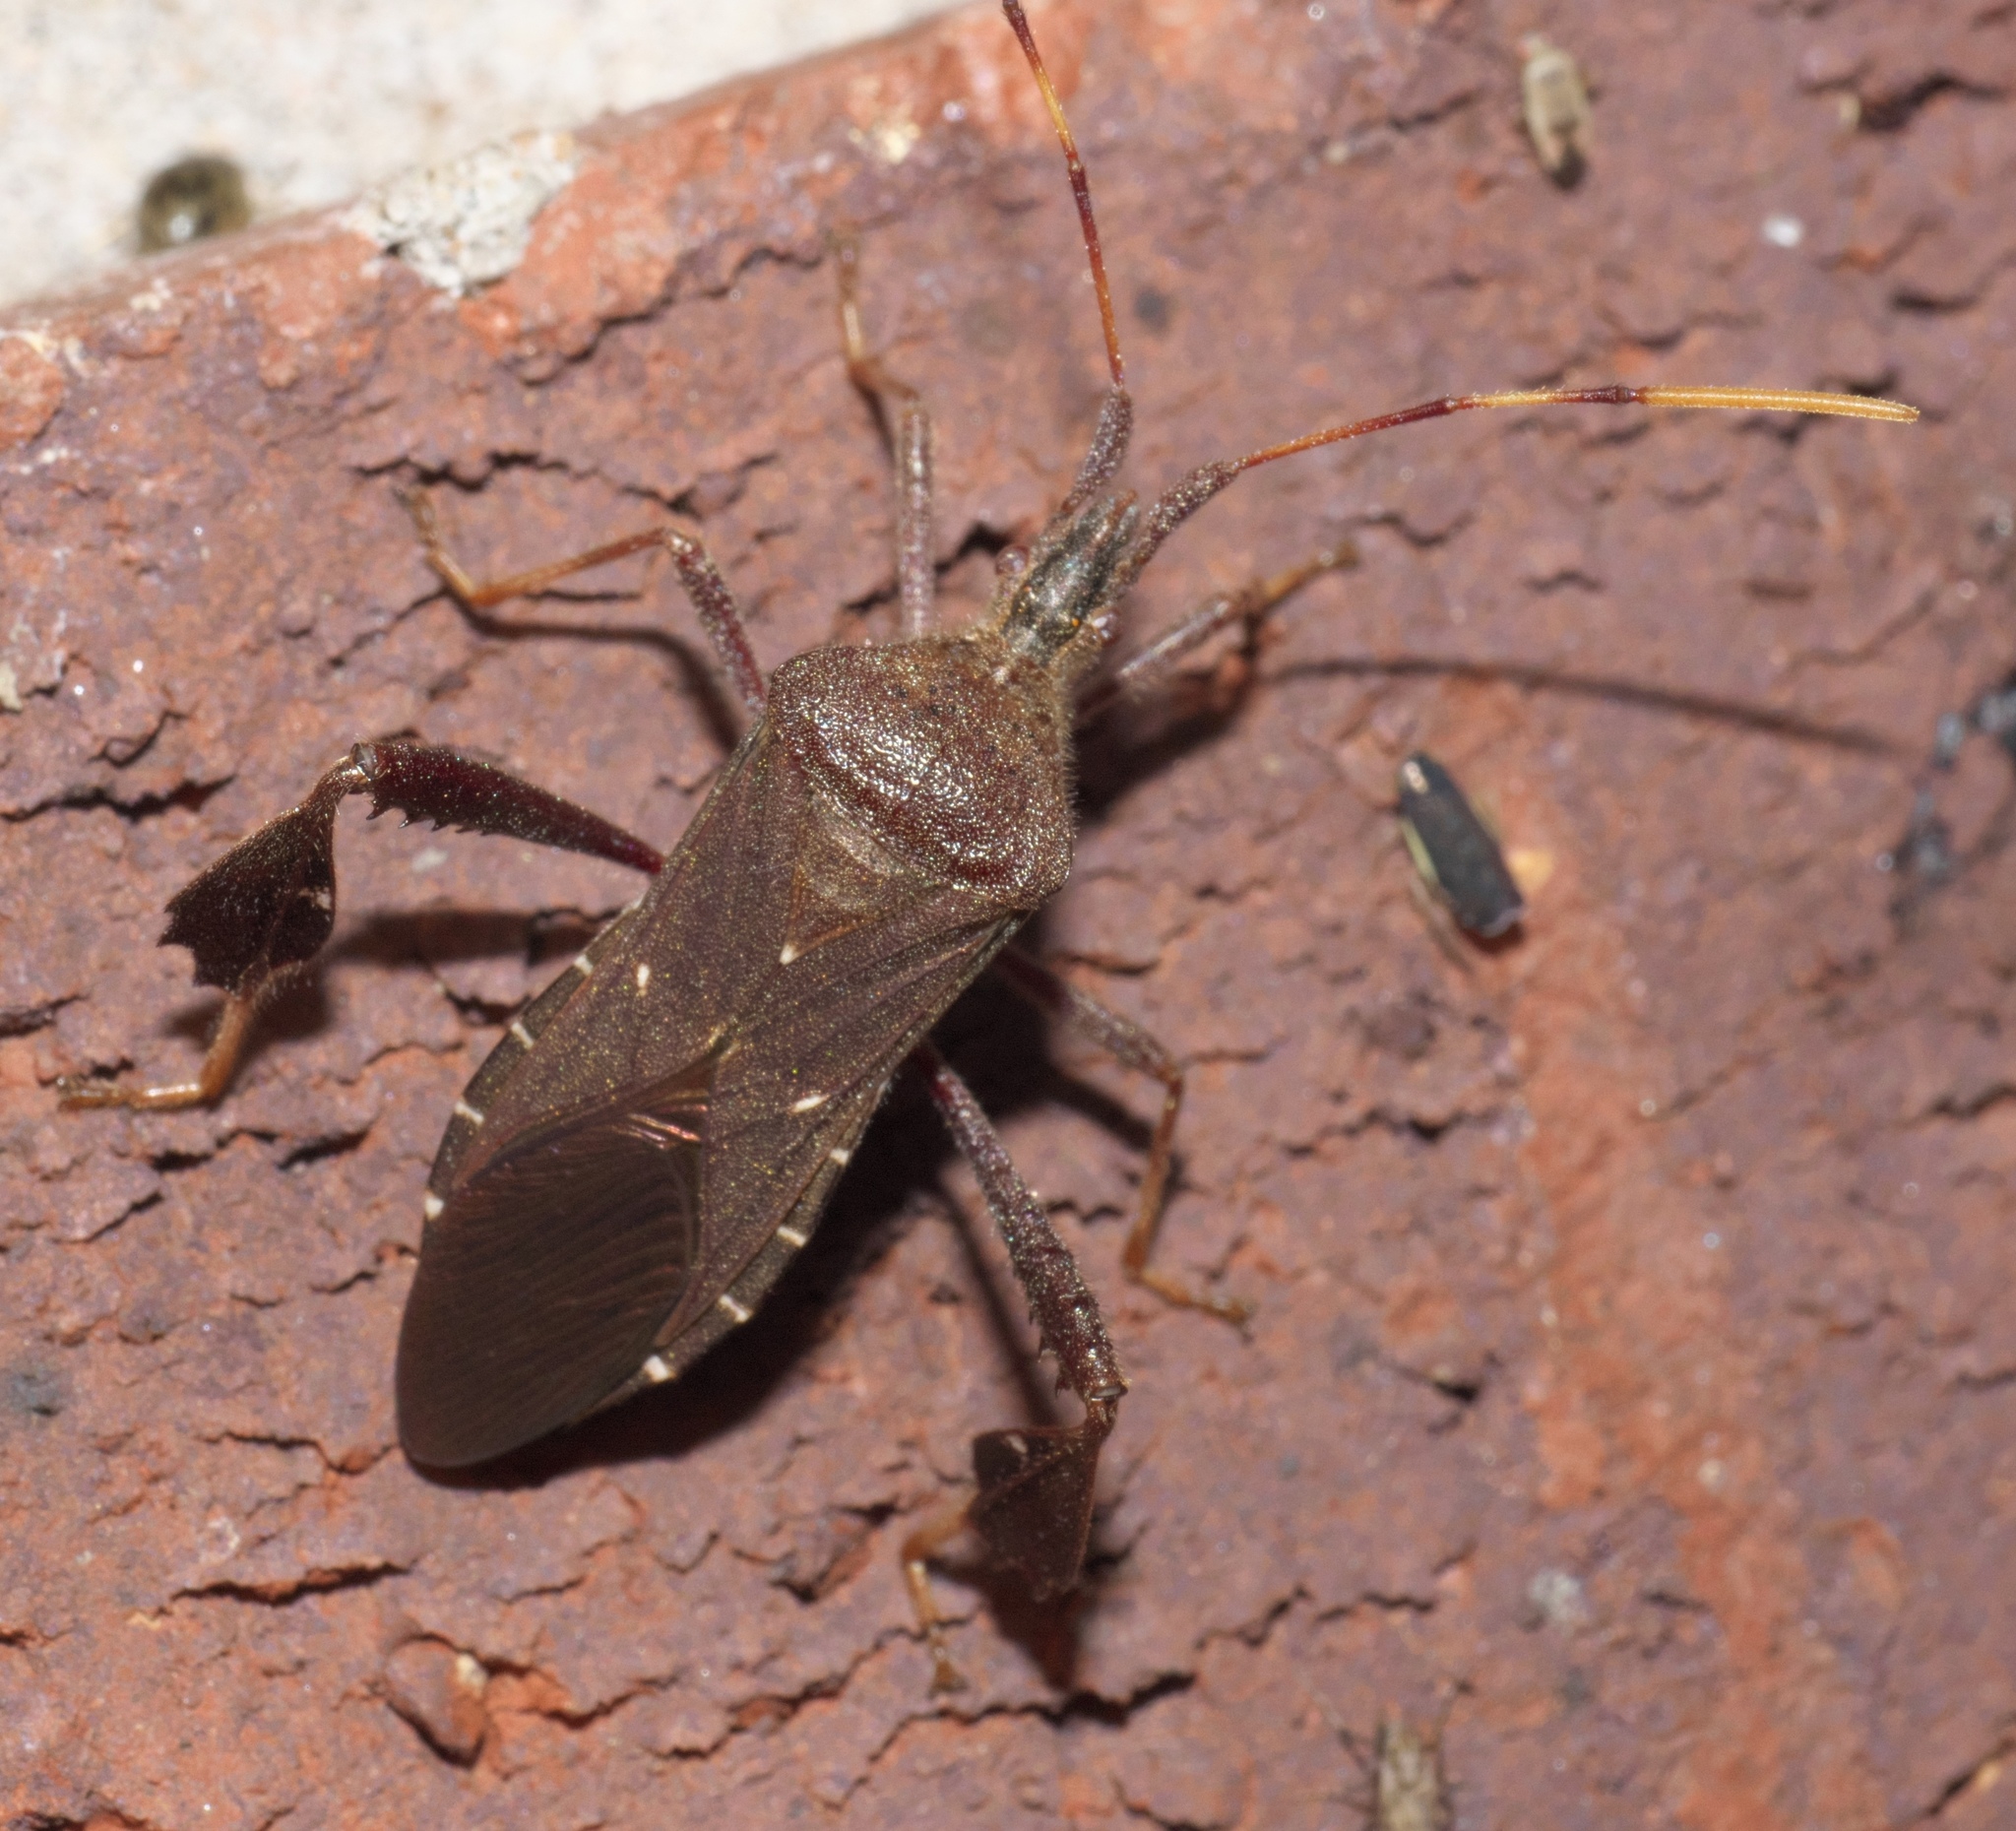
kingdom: Animalia
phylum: Arthropoda
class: Insecta
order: Hemiptera
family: Coreidae
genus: Leptoglossus
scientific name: Leptoglossus oppositus
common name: Northern leaf-footed bug
